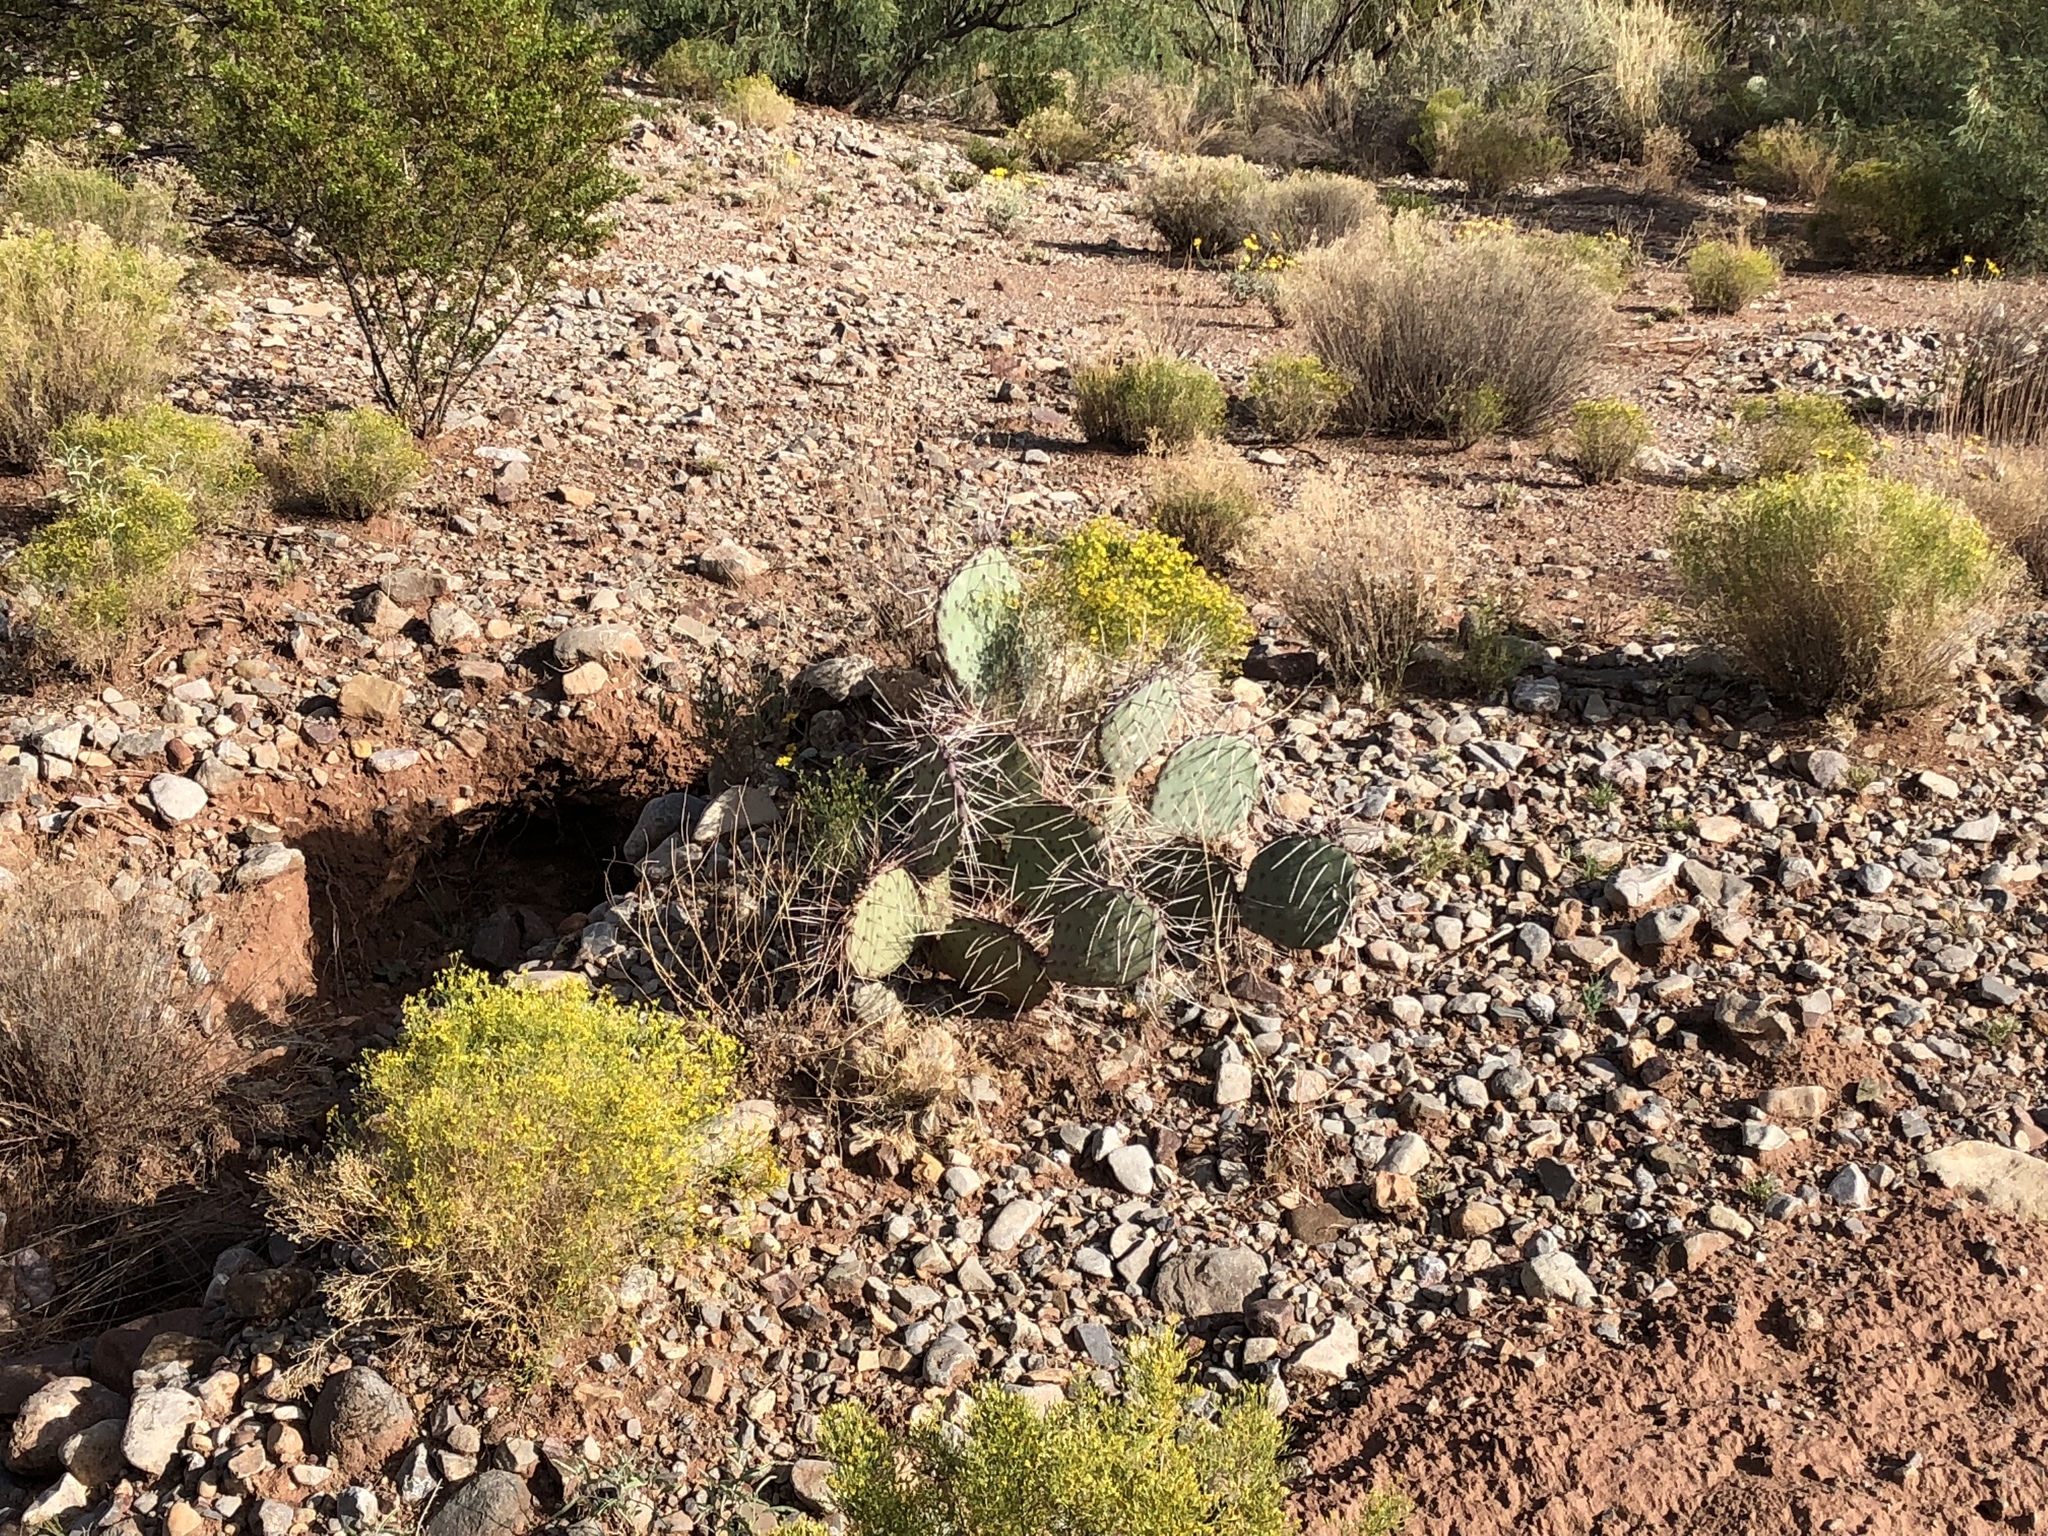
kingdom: Plantae
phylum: Tracheophyta
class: Magnoliopsida
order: Caryophyllales
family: Cactaceae
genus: Opuntia
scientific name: Opuntia phaeacantha
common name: New mexico prickly-pear
